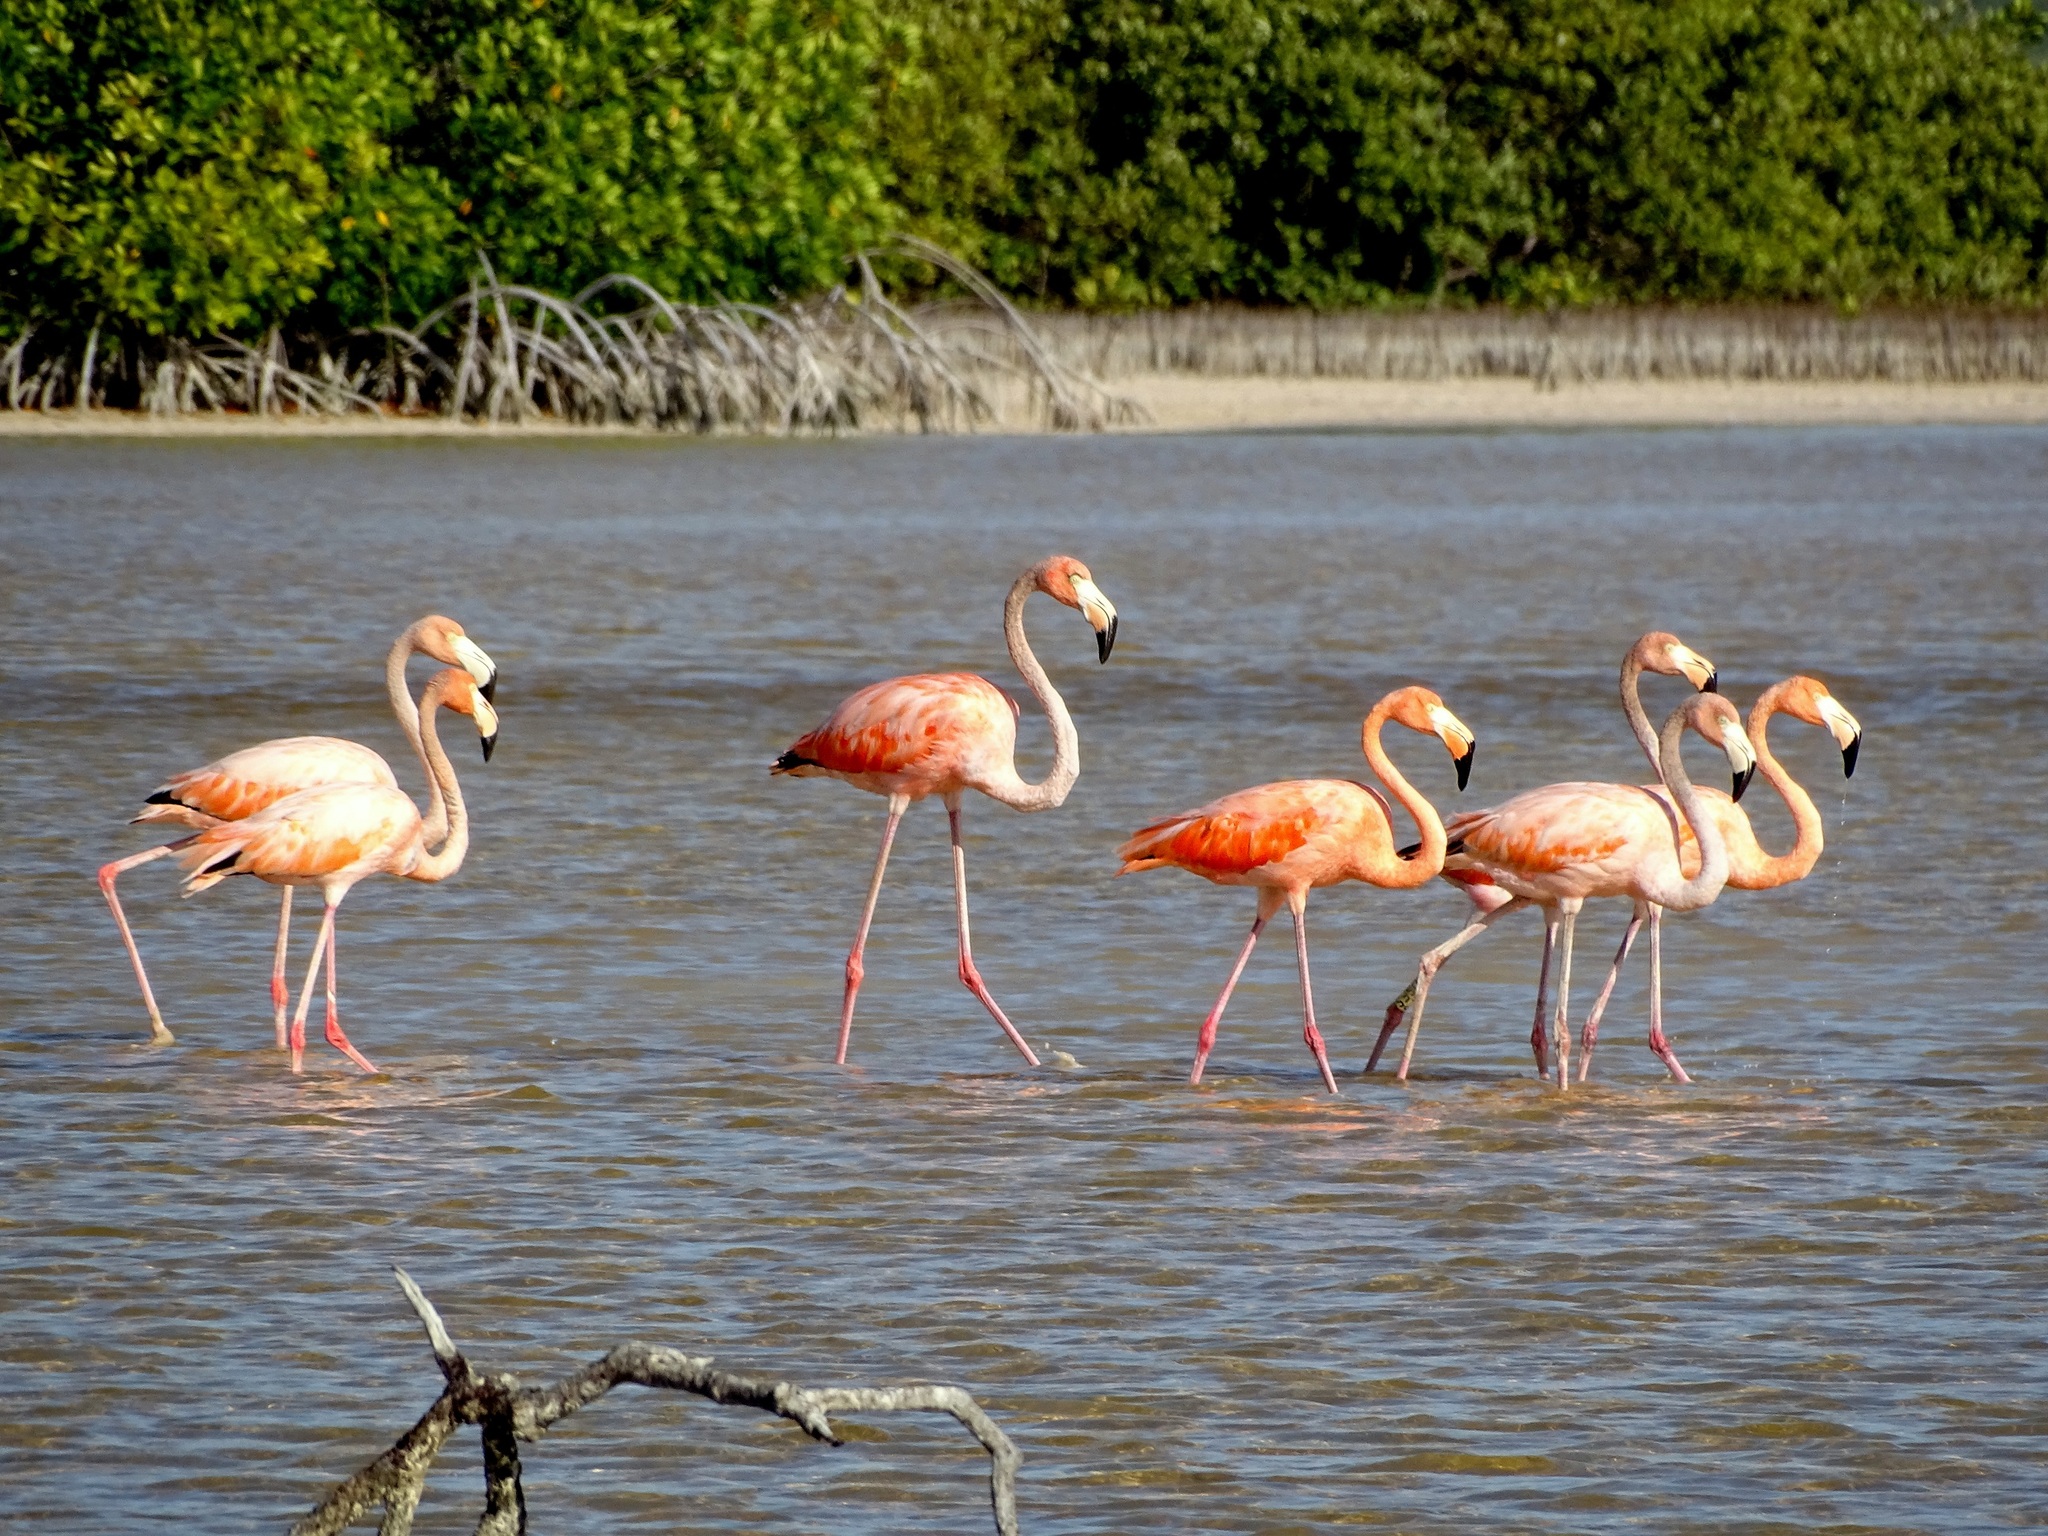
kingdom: Animalia
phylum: Chordata
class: Aves
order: Phoenicopteriformes
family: Phoenicopteridae
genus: Phoenicopterus
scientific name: Phoenicopterus ruber
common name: American flamingo
